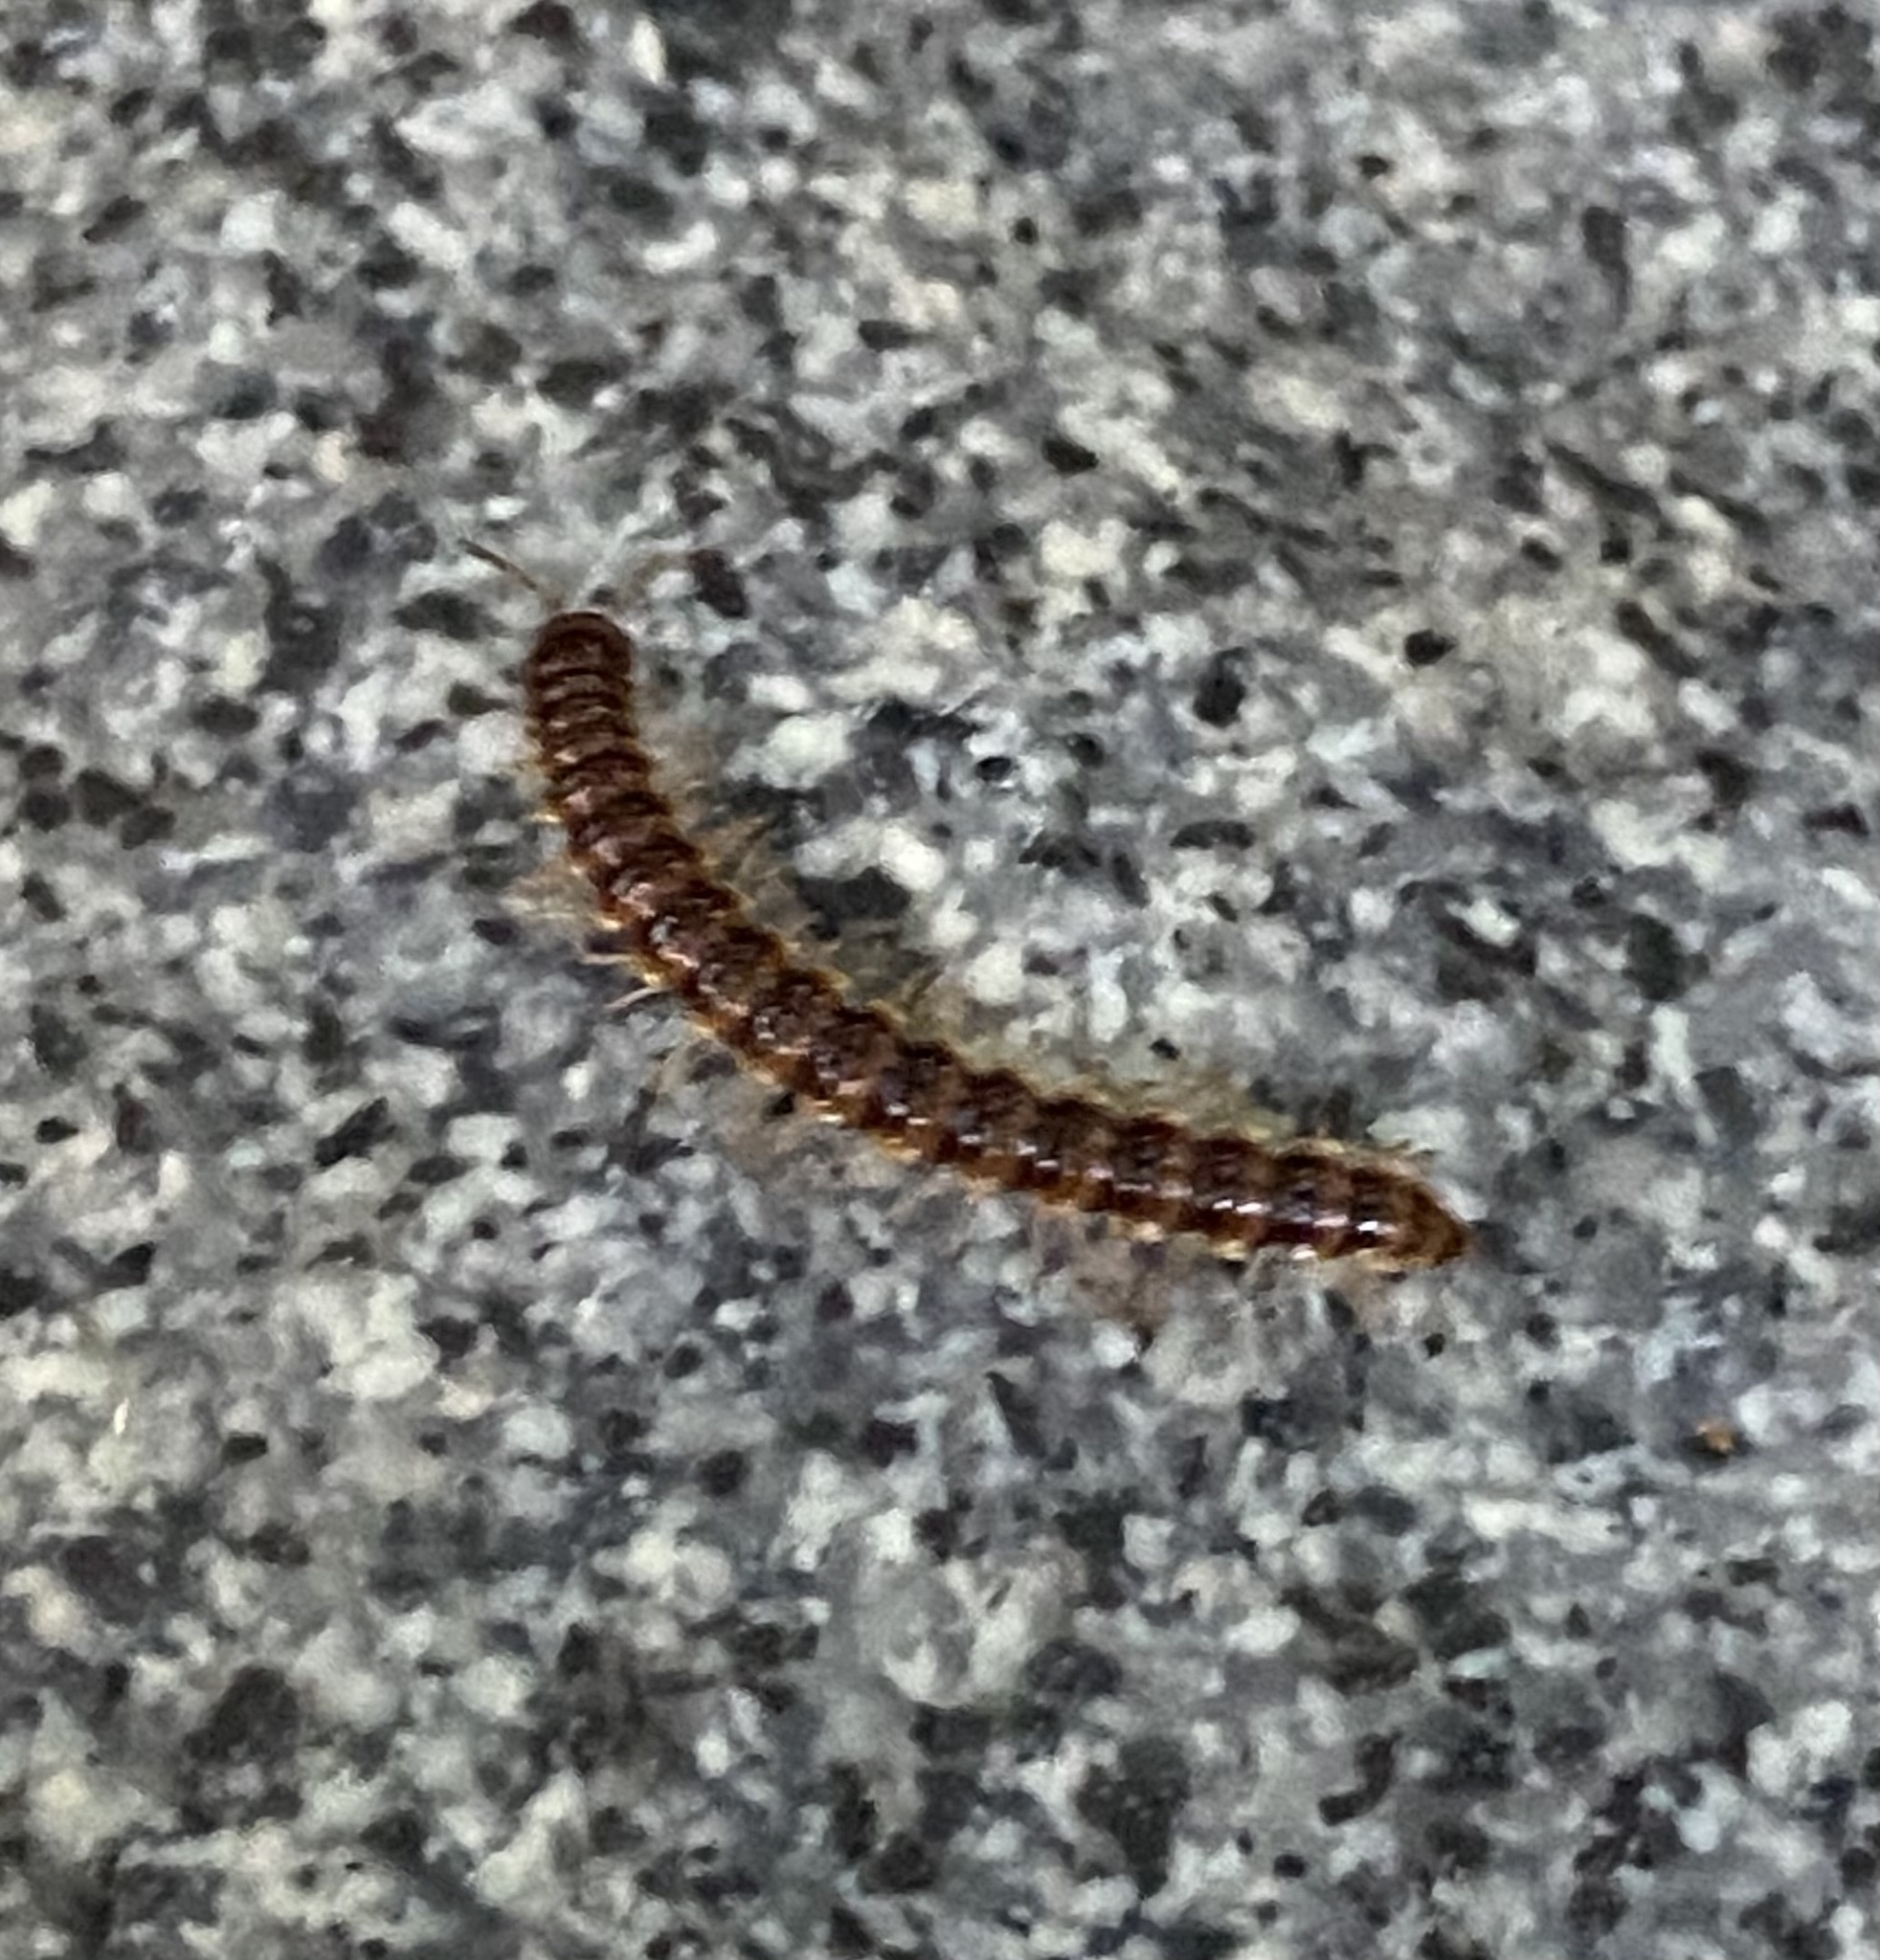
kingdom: Animalia
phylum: Arthropoda
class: Diplopoda
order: Polydesmida
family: Paradoxosomatidae
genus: Oxidus
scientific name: Oxidus gracilis
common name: Greenhouse millipede
